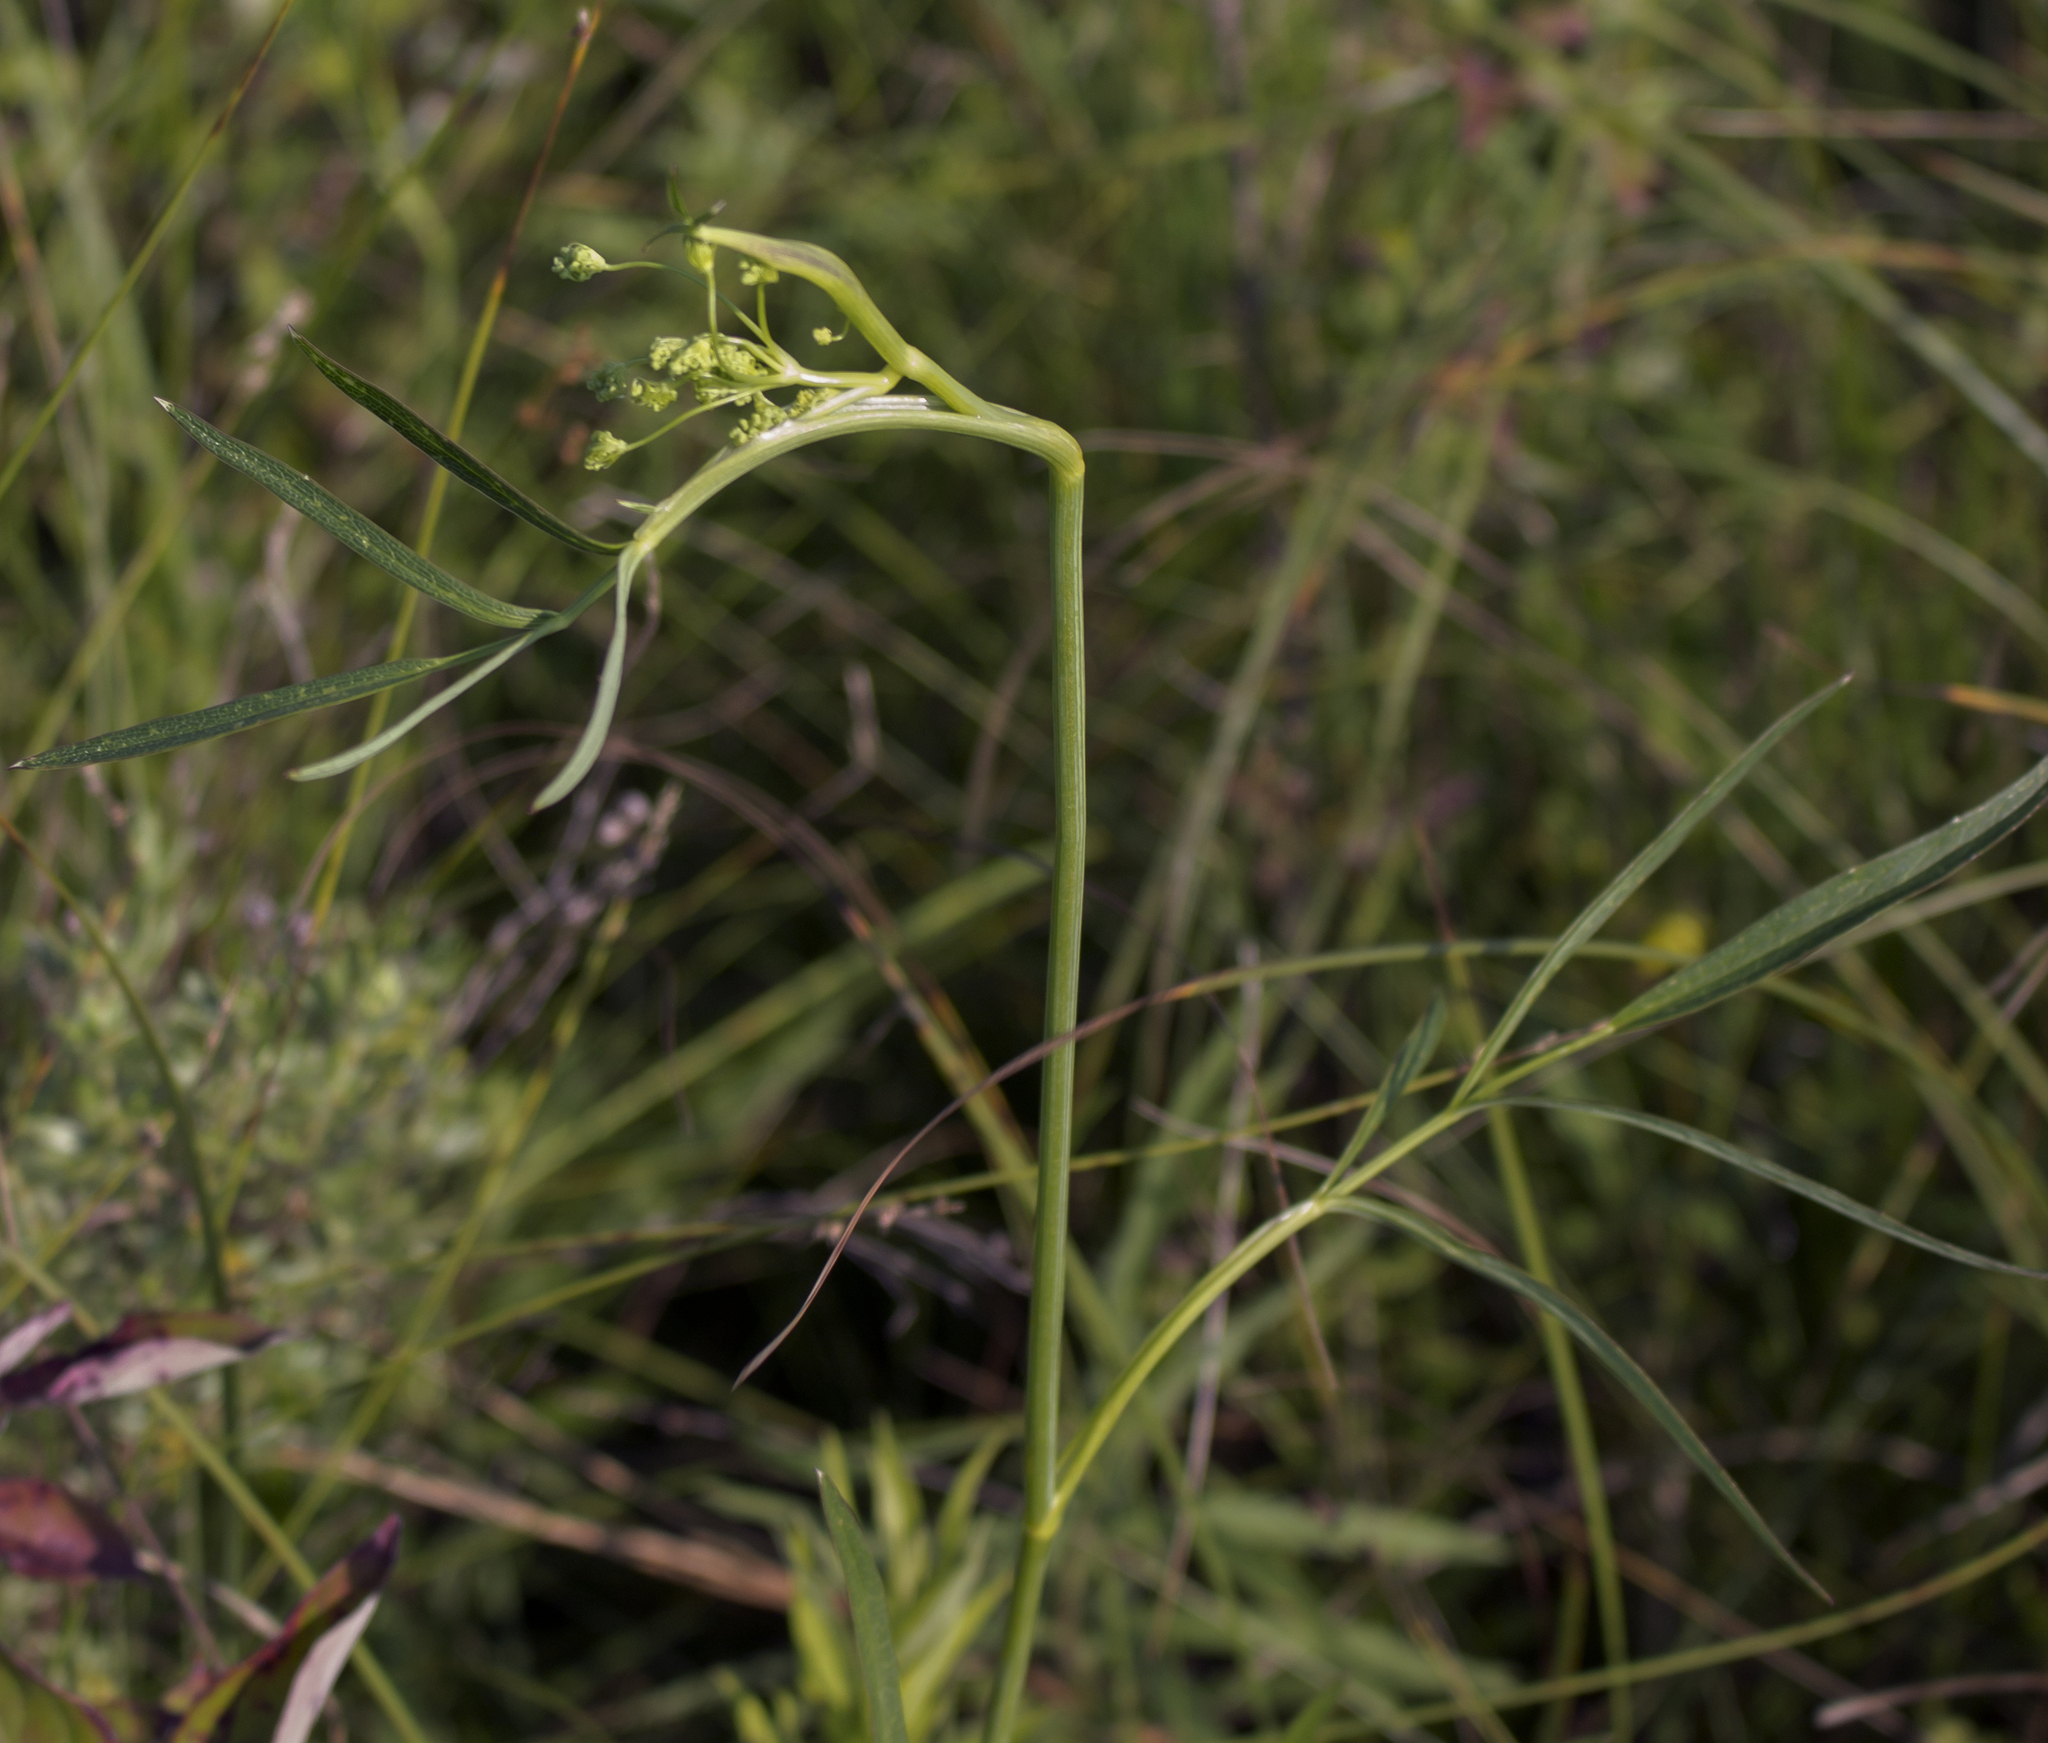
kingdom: Plantae
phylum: Tracheophyta
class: Magnoliopsida
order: Apiales
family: Apiaceae
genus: Oxypolis
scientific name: Oxypolis rigidior
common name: Cowbane
